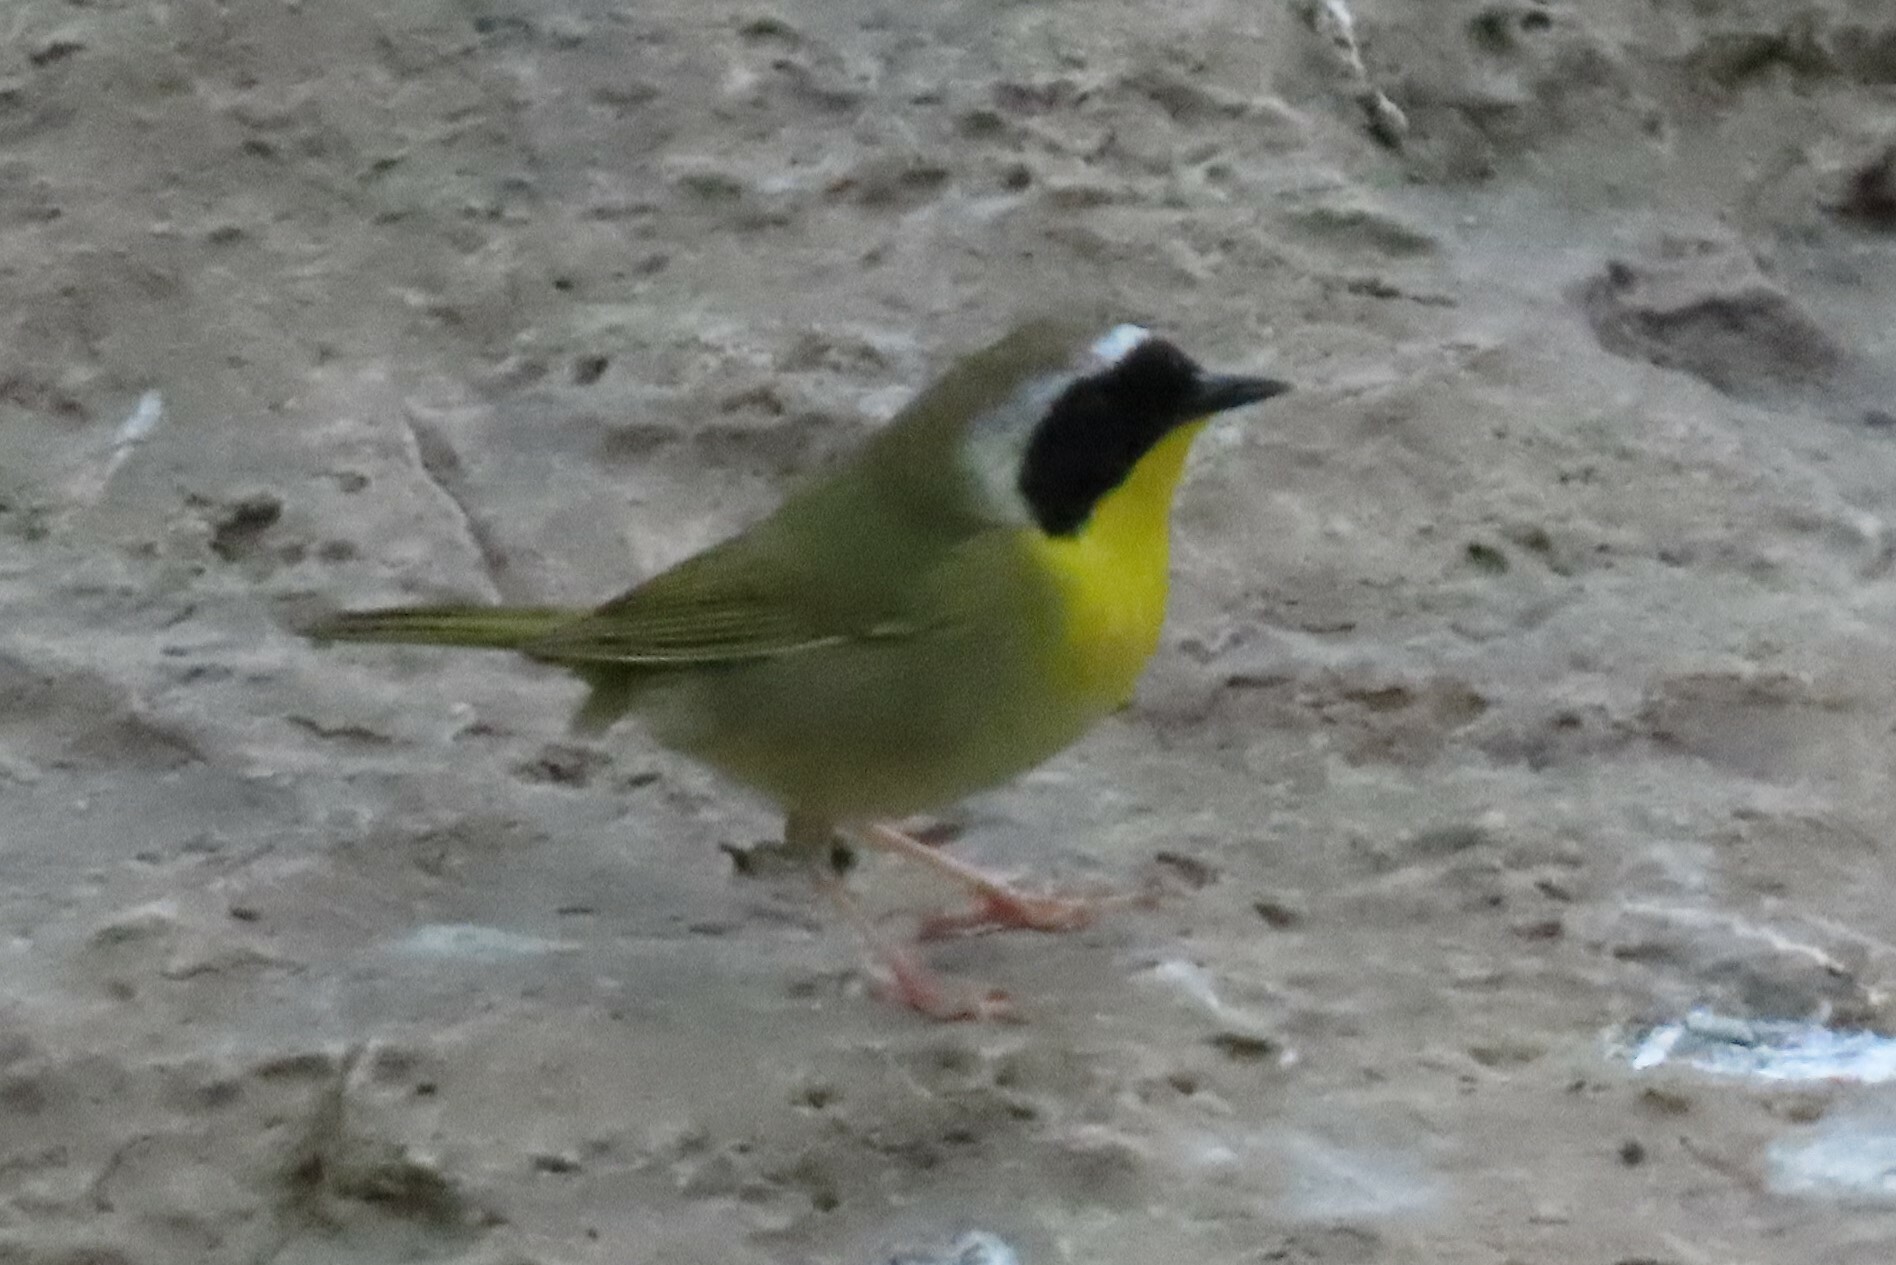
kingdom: Animalia
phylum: Chordata
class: Aves
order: Passeriformes
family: Parulidae
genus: Geothlypis
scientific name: Geothlypis trichas
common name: Common yellowthroat
